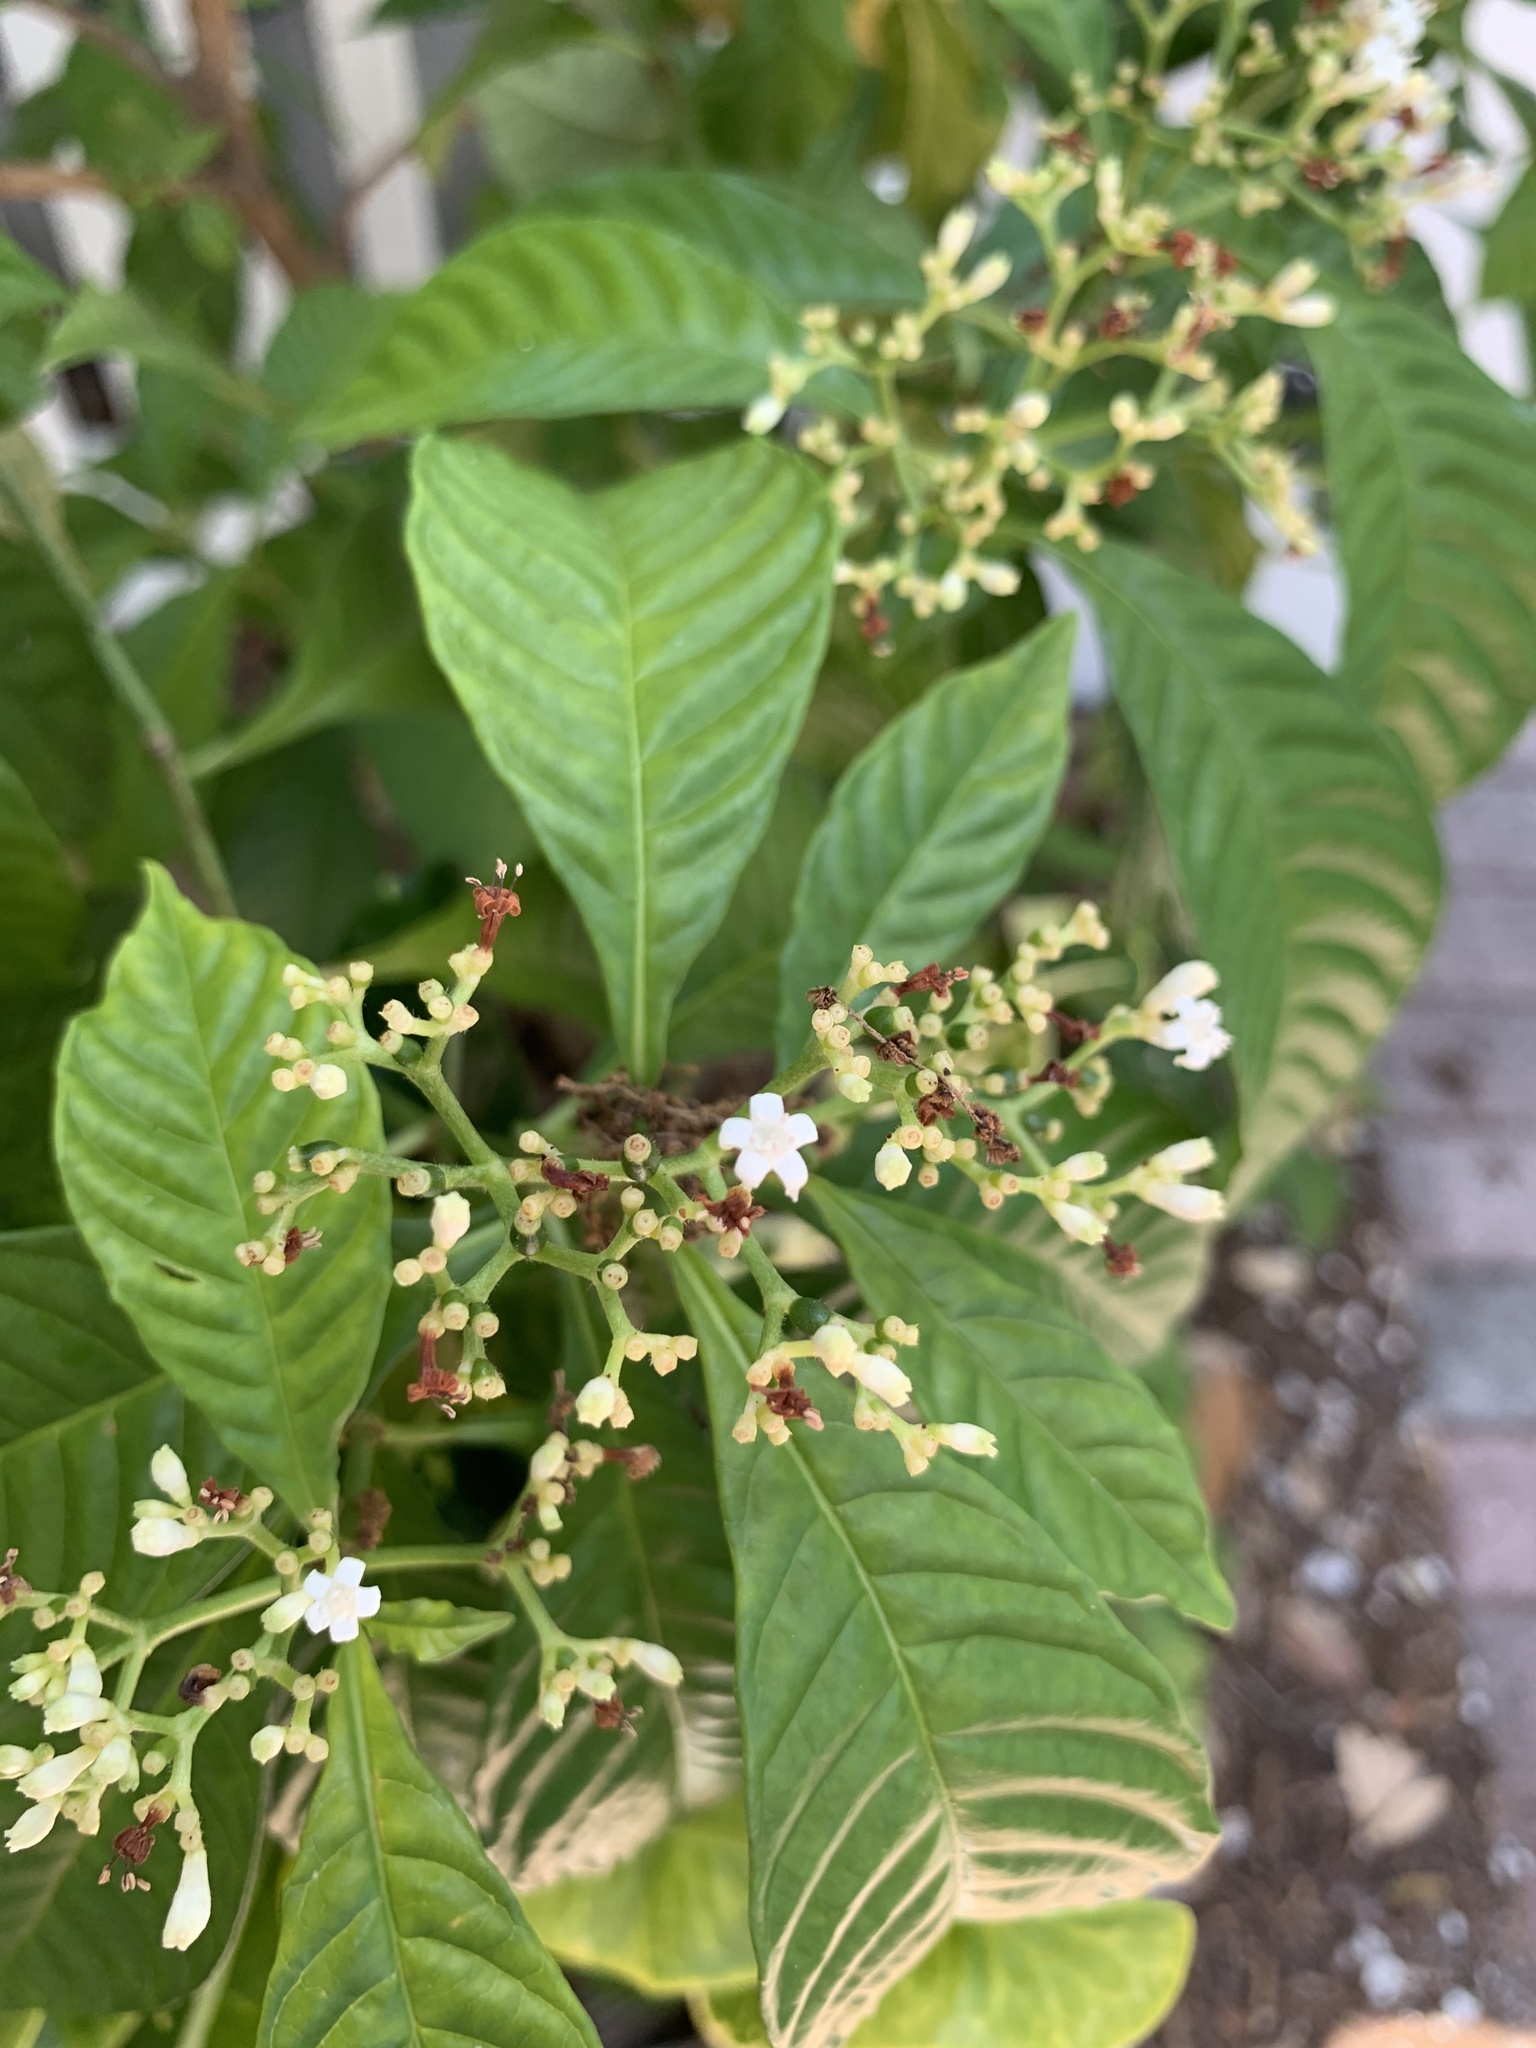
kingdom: Plantae
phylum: Tracheophyta
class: Magnoliopsida
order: Gentianales
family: Rubiaceae
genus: Psychotria
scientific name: Psychotria nervosa
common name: Bastard cankerberry
